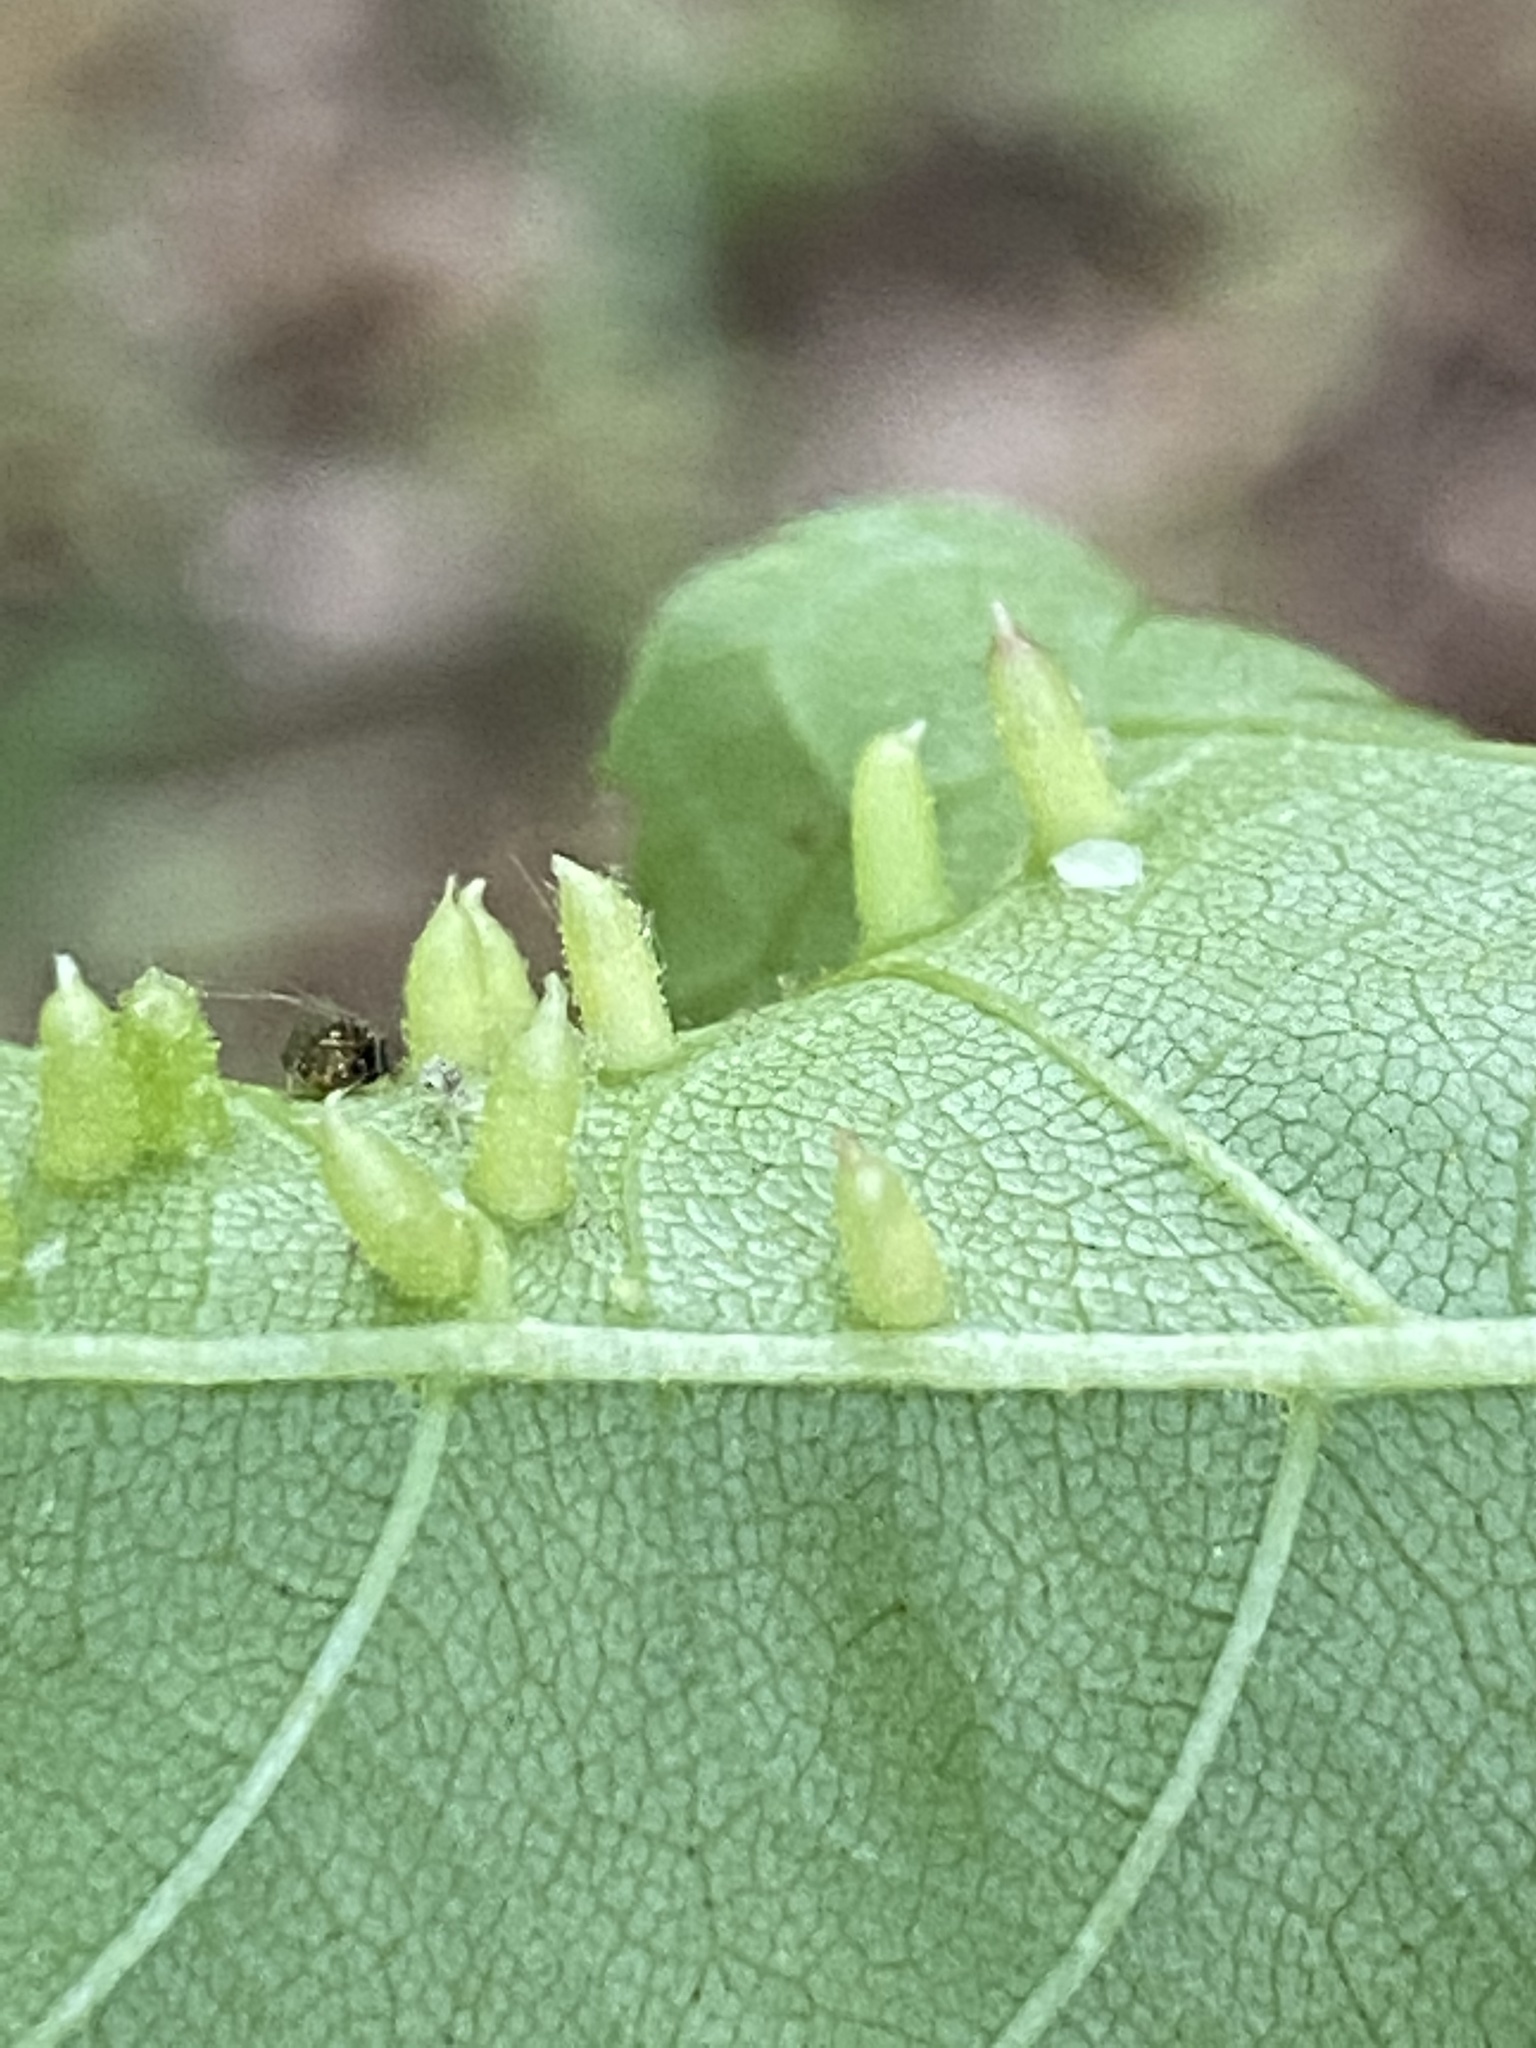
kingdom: Animalia
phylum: Arthropoda
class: Insecta
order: Diptera
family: Cecidomyiidae
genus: Caryomyia
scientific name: Caryomyia striolata
